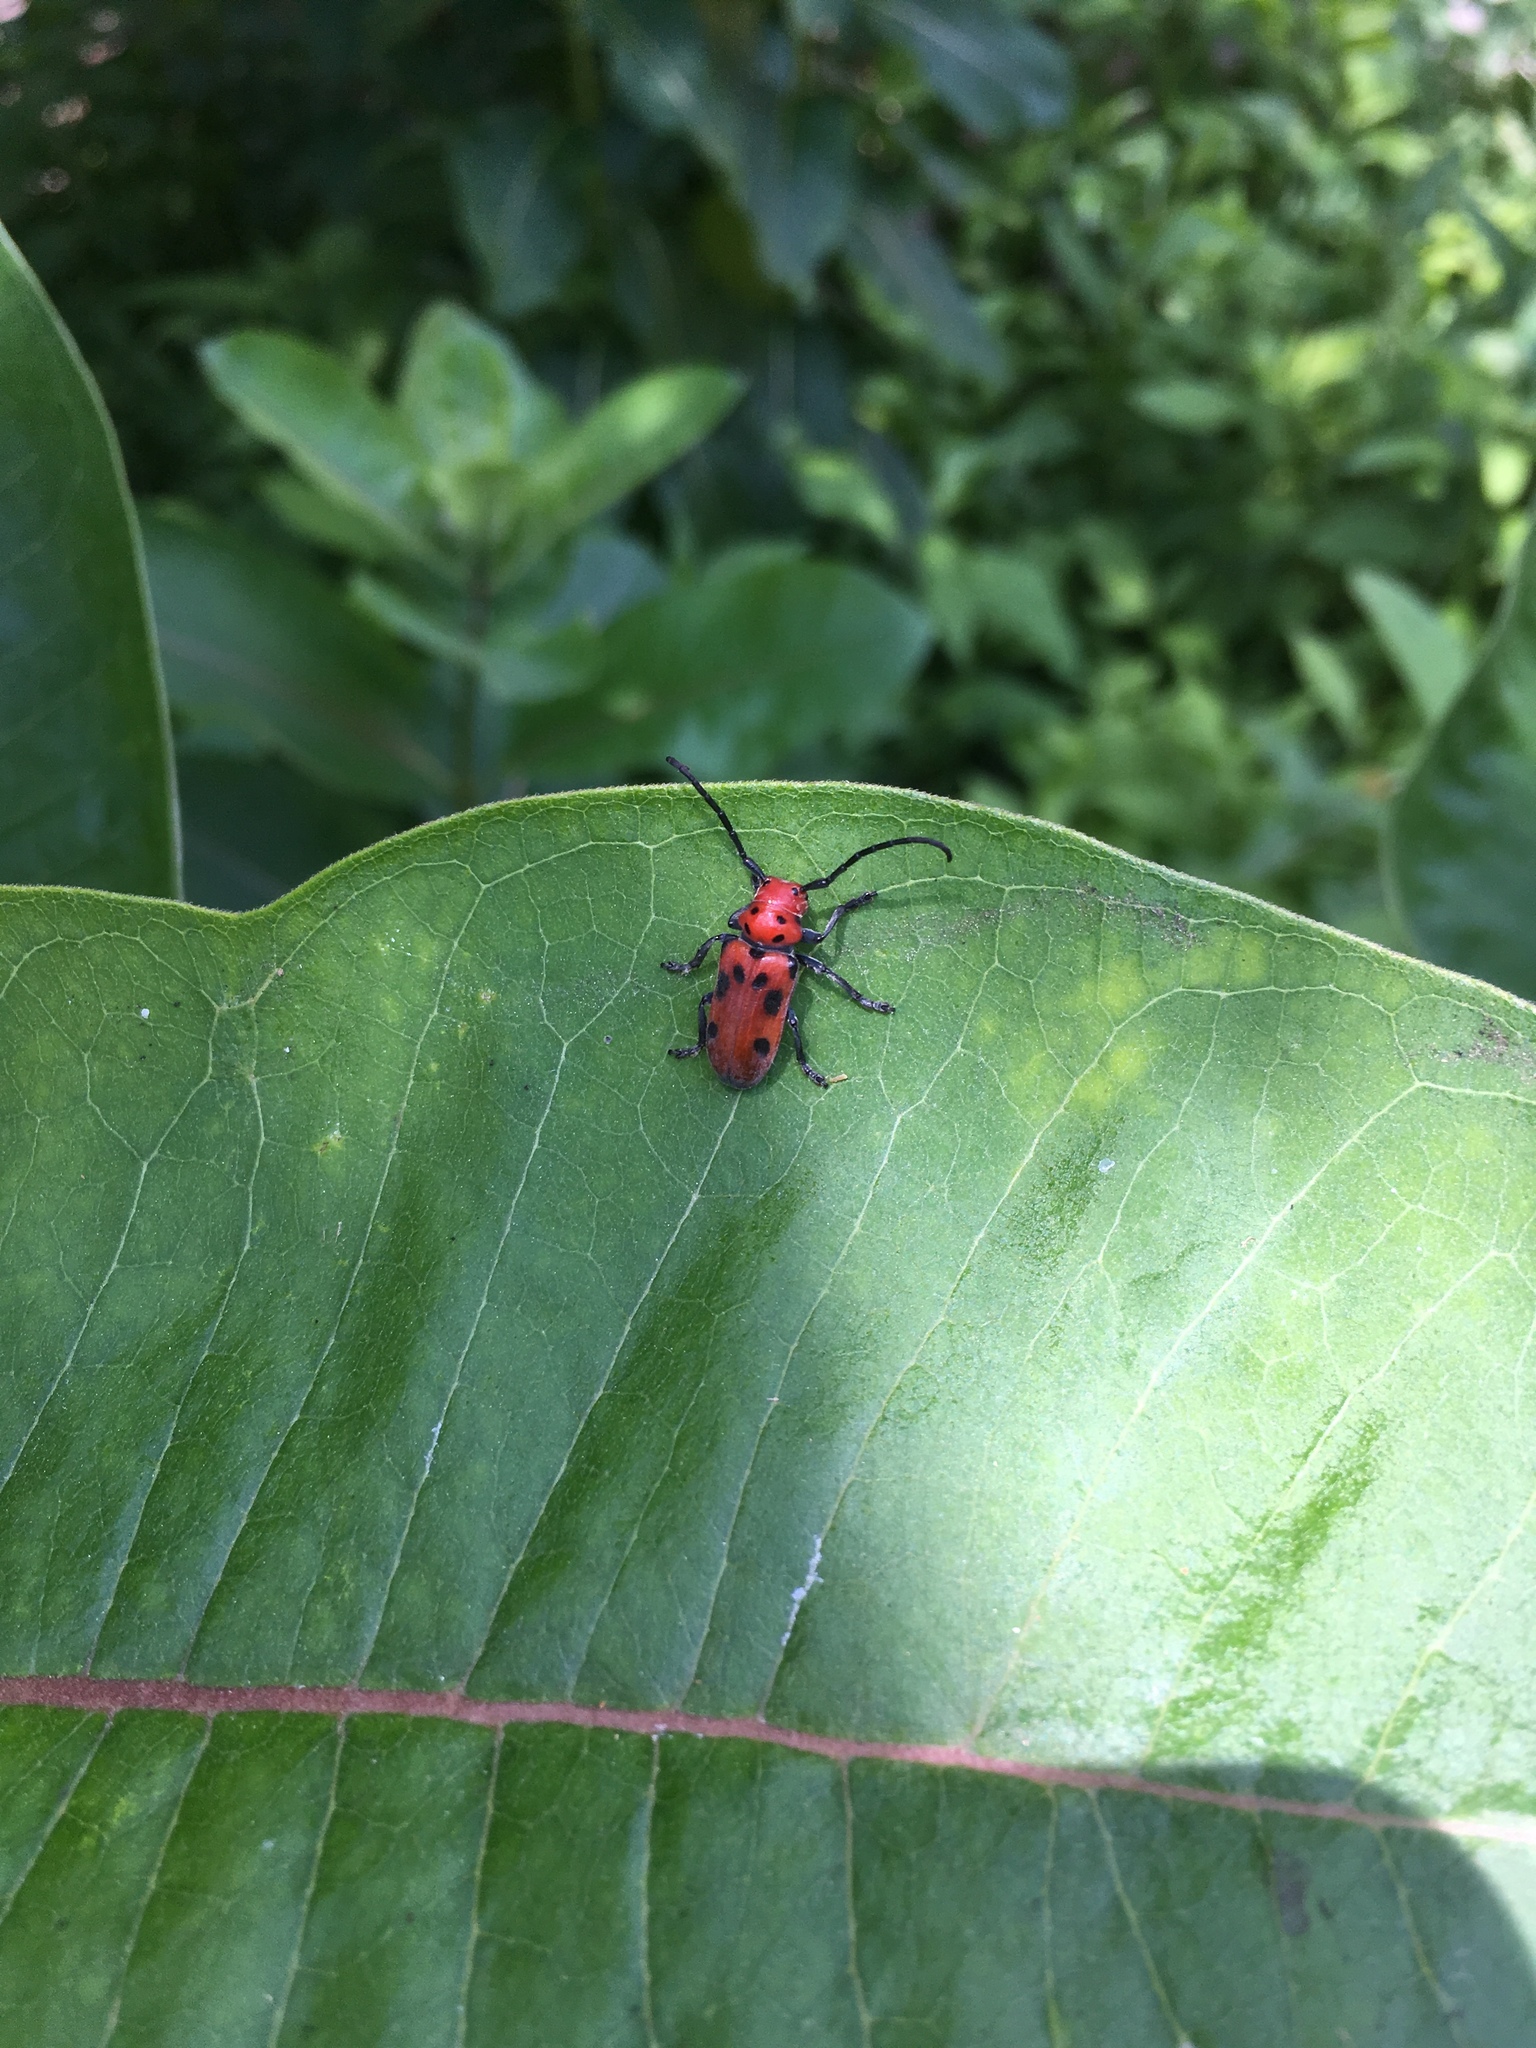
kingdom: Animalia
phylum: Arthropoda
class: Insecta
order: Coleoptera
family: Cerambycidae
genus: Tetraopes
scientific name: Tetraopes tetrophthalmus
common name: Red milkweed beetle
